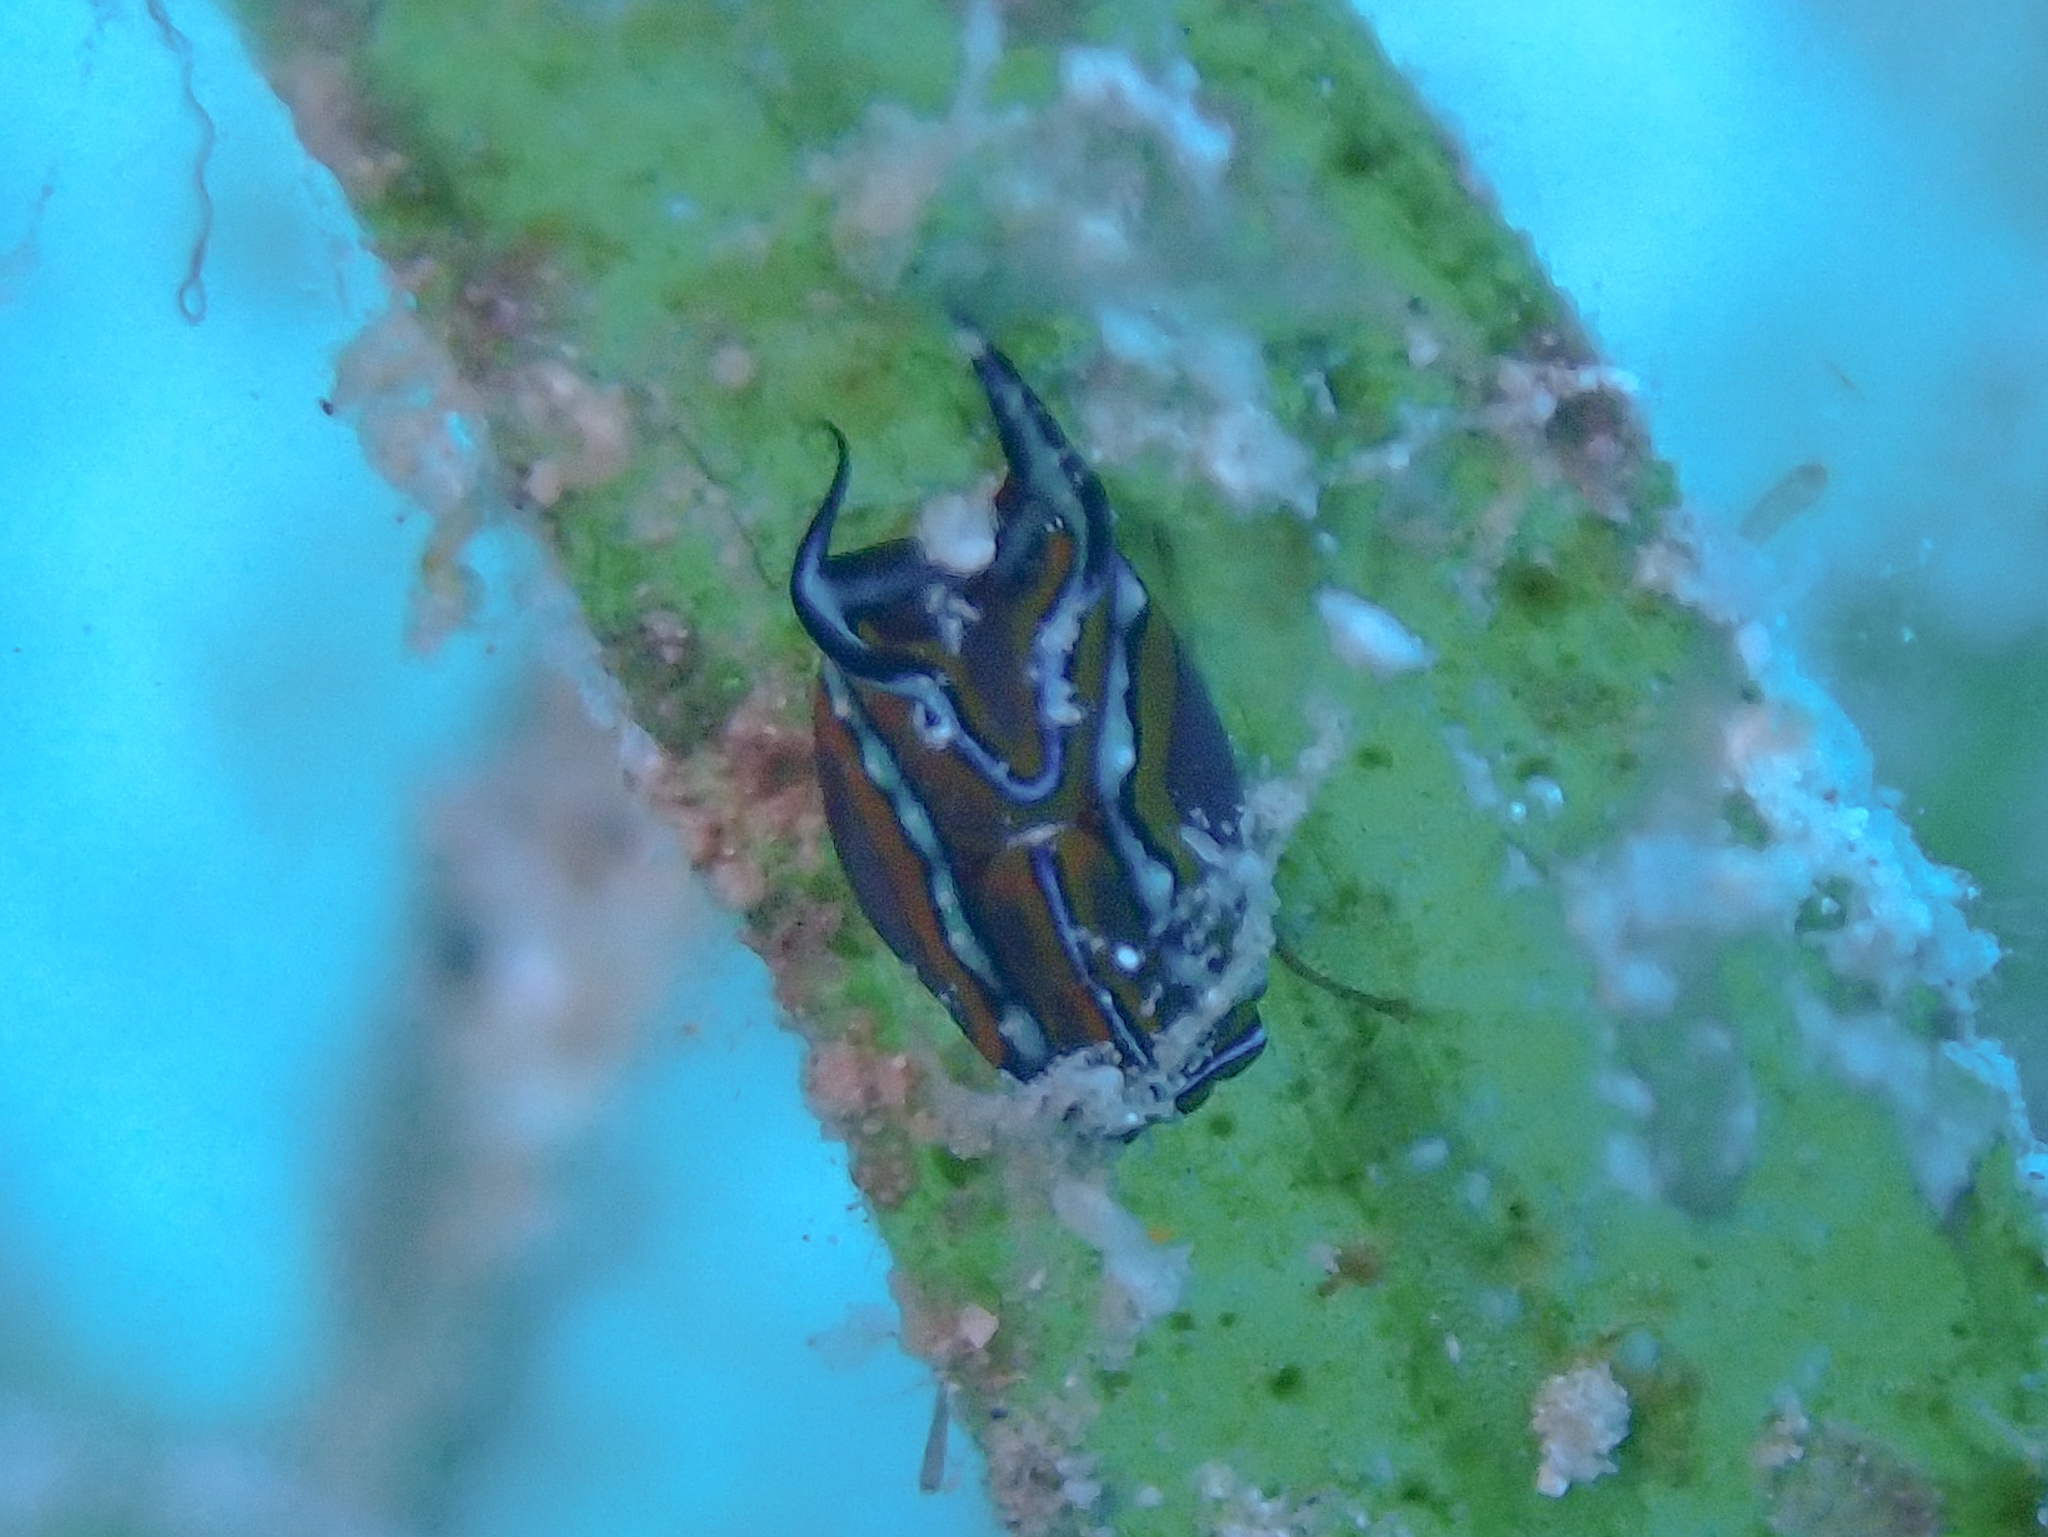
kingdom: Animalia
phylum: Mollusca
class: Gastropoda
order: Cephalaspidea
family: Aglajidae
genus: Chelidonura
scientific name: Chelidonura hirundinina
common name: Leech headshield slug
